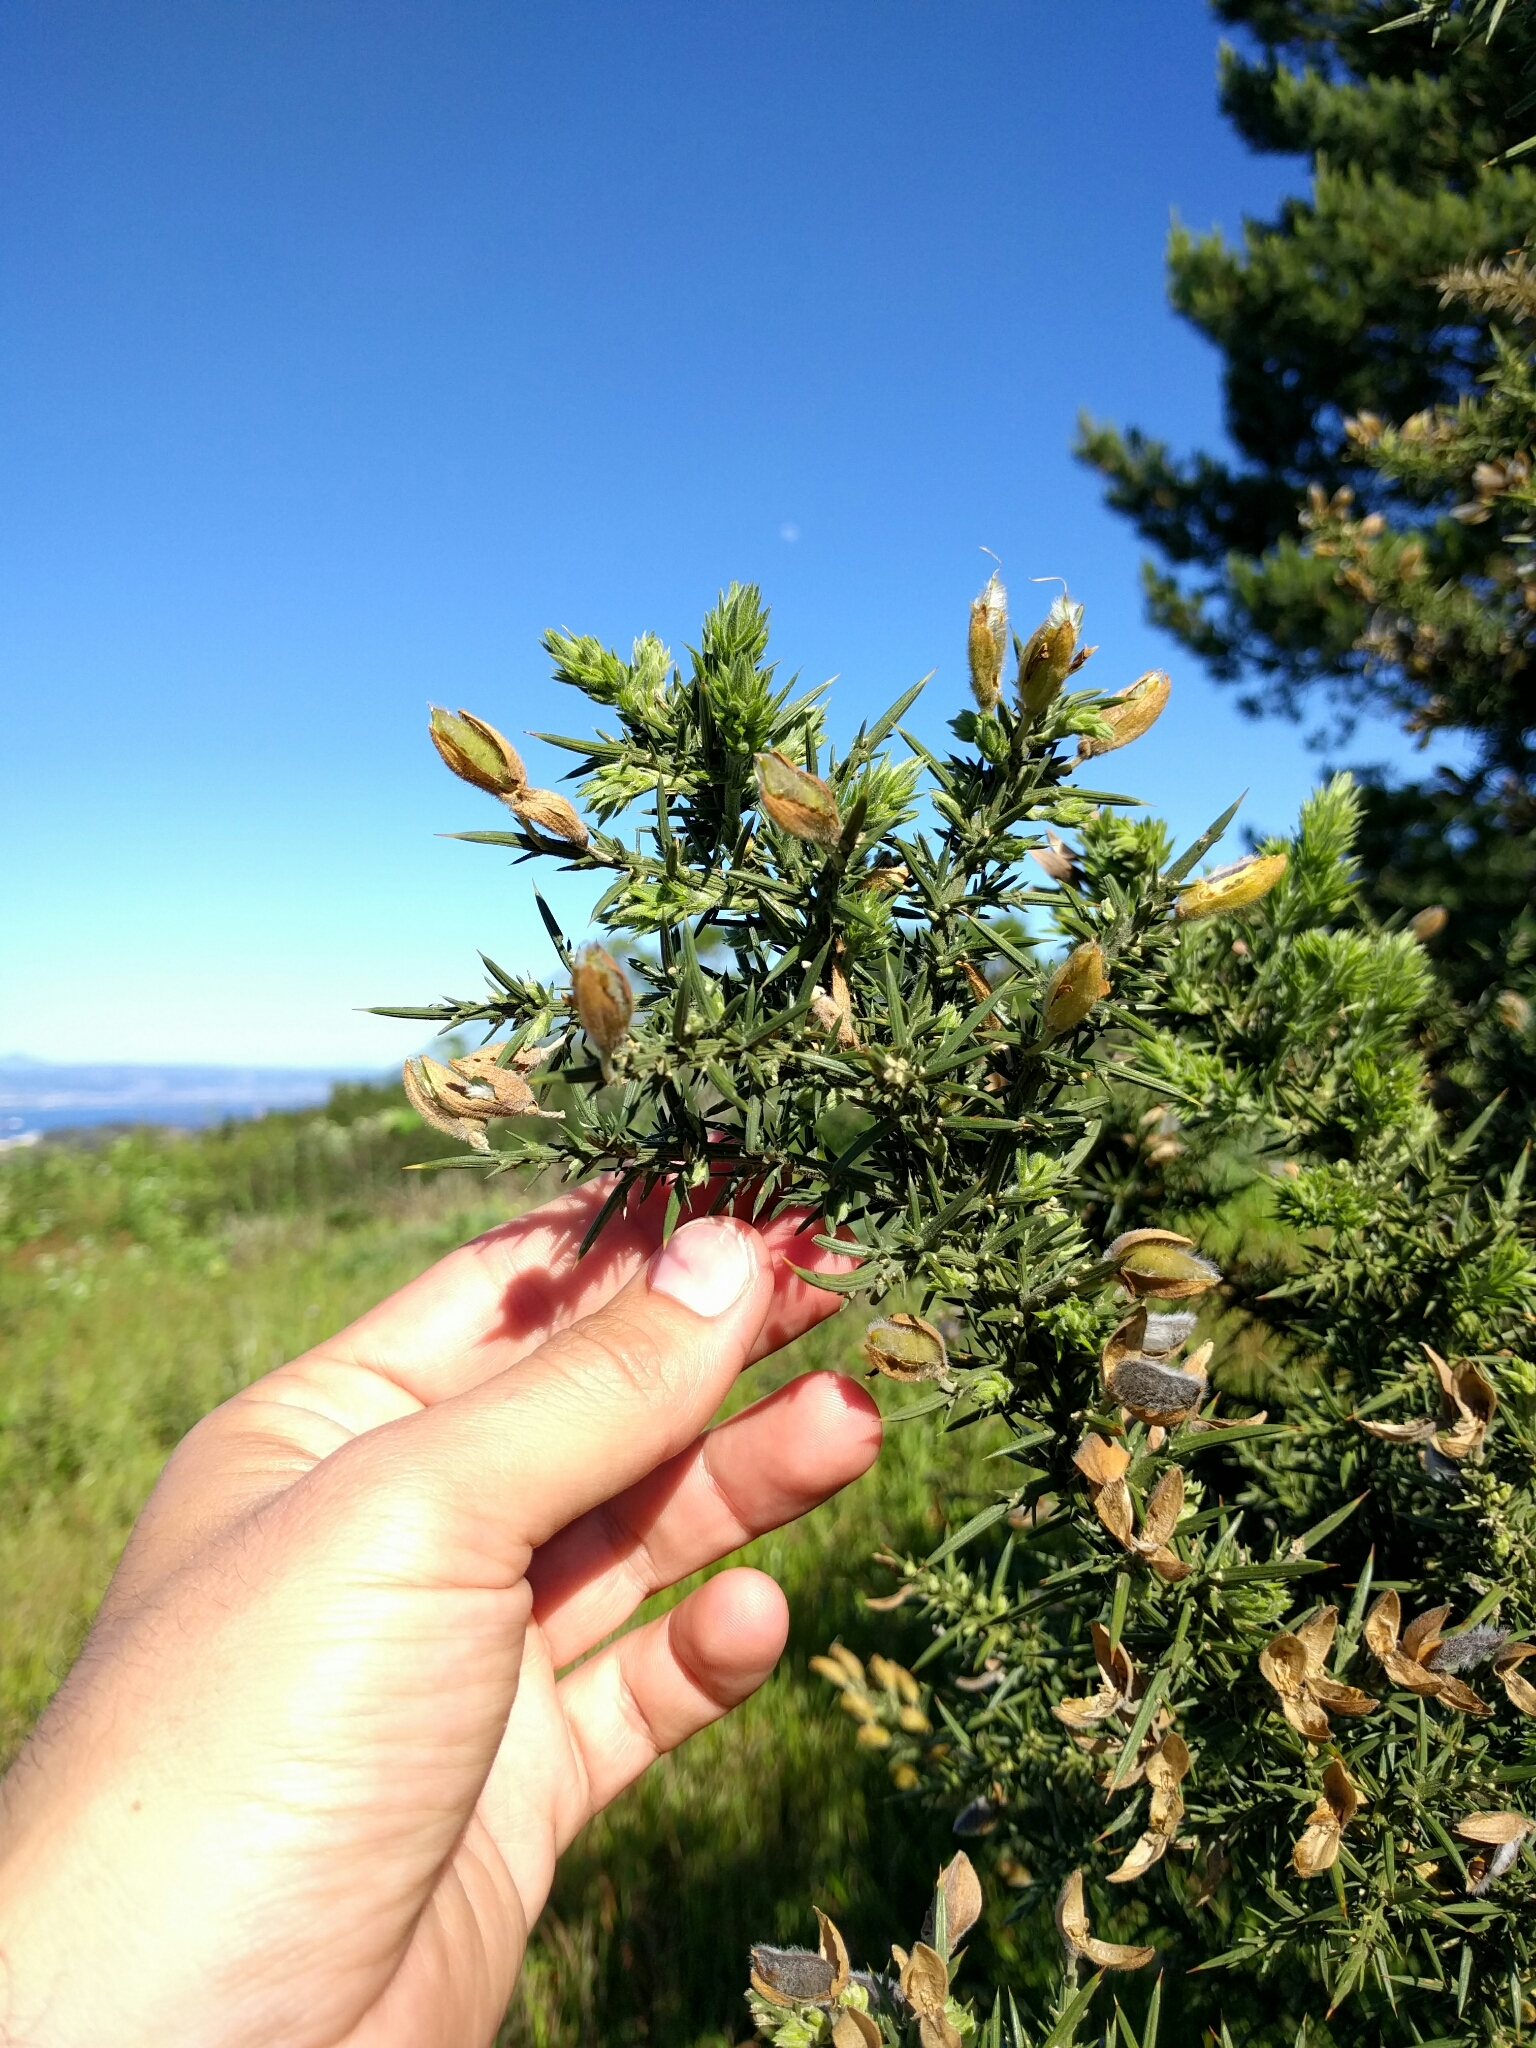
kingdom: Plantae
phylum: Tracheophyta
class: Magnoliopsida
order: Fabales
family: Fabaceae
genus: Ulex
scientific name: Ulex europaeus
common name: Common gorse
